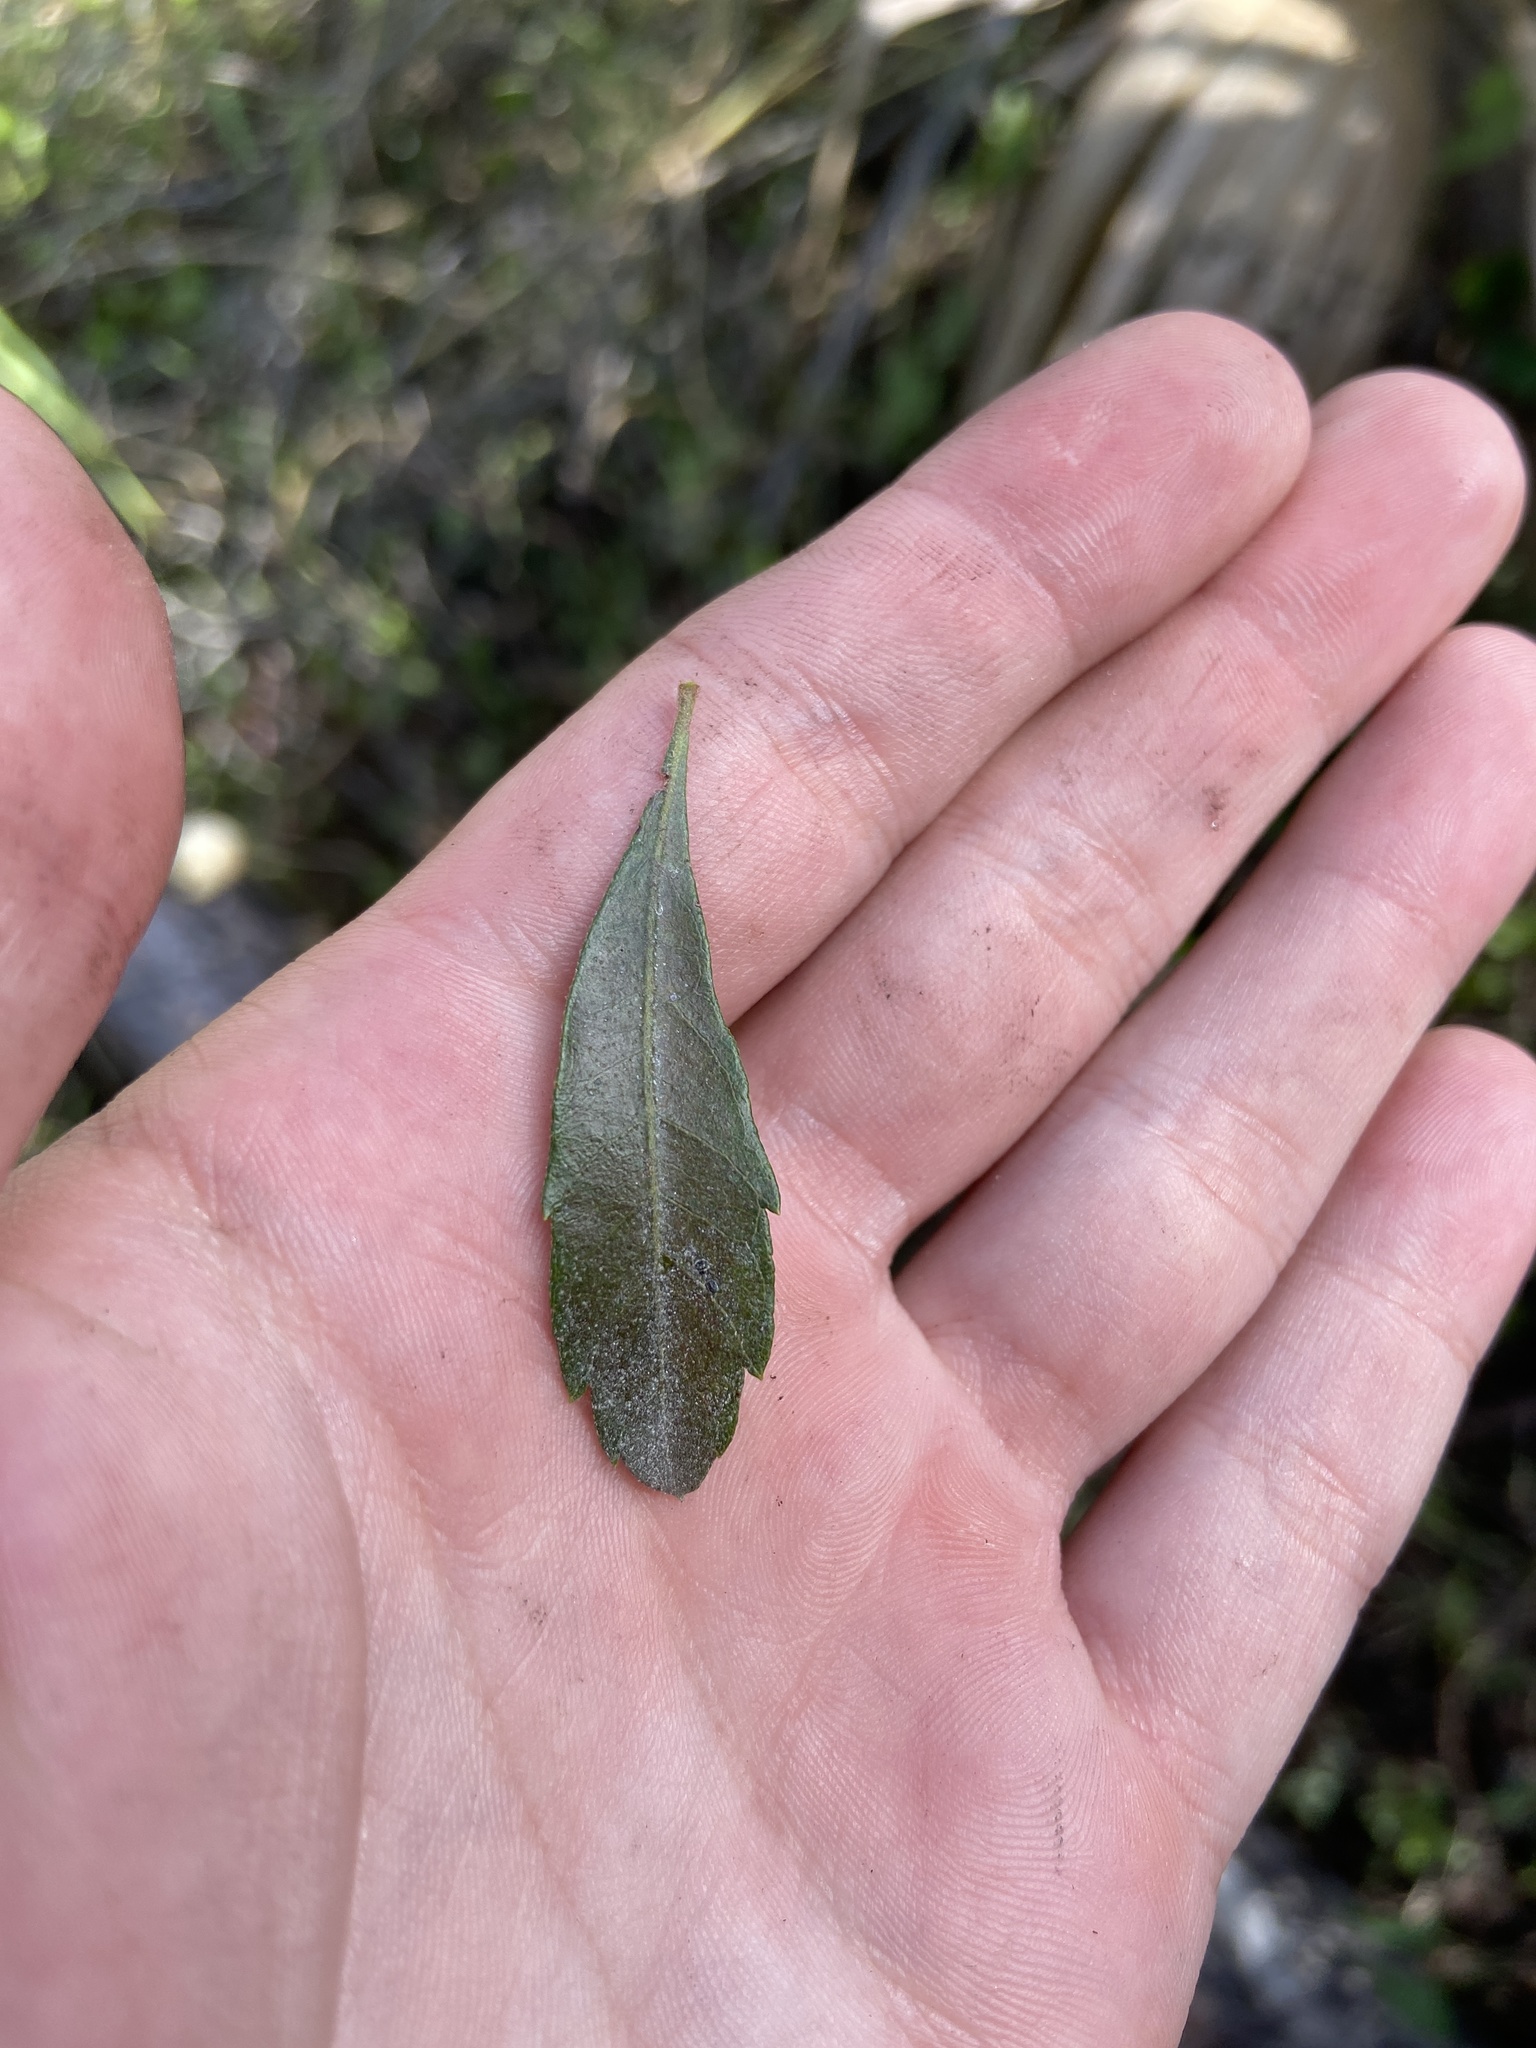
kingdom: Plantae
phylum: Tracheophyta
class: Magnoliopsida
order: Fagales
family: Myricaceae
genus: Morella
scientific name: Morella cerifera
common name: Wax myrtle
